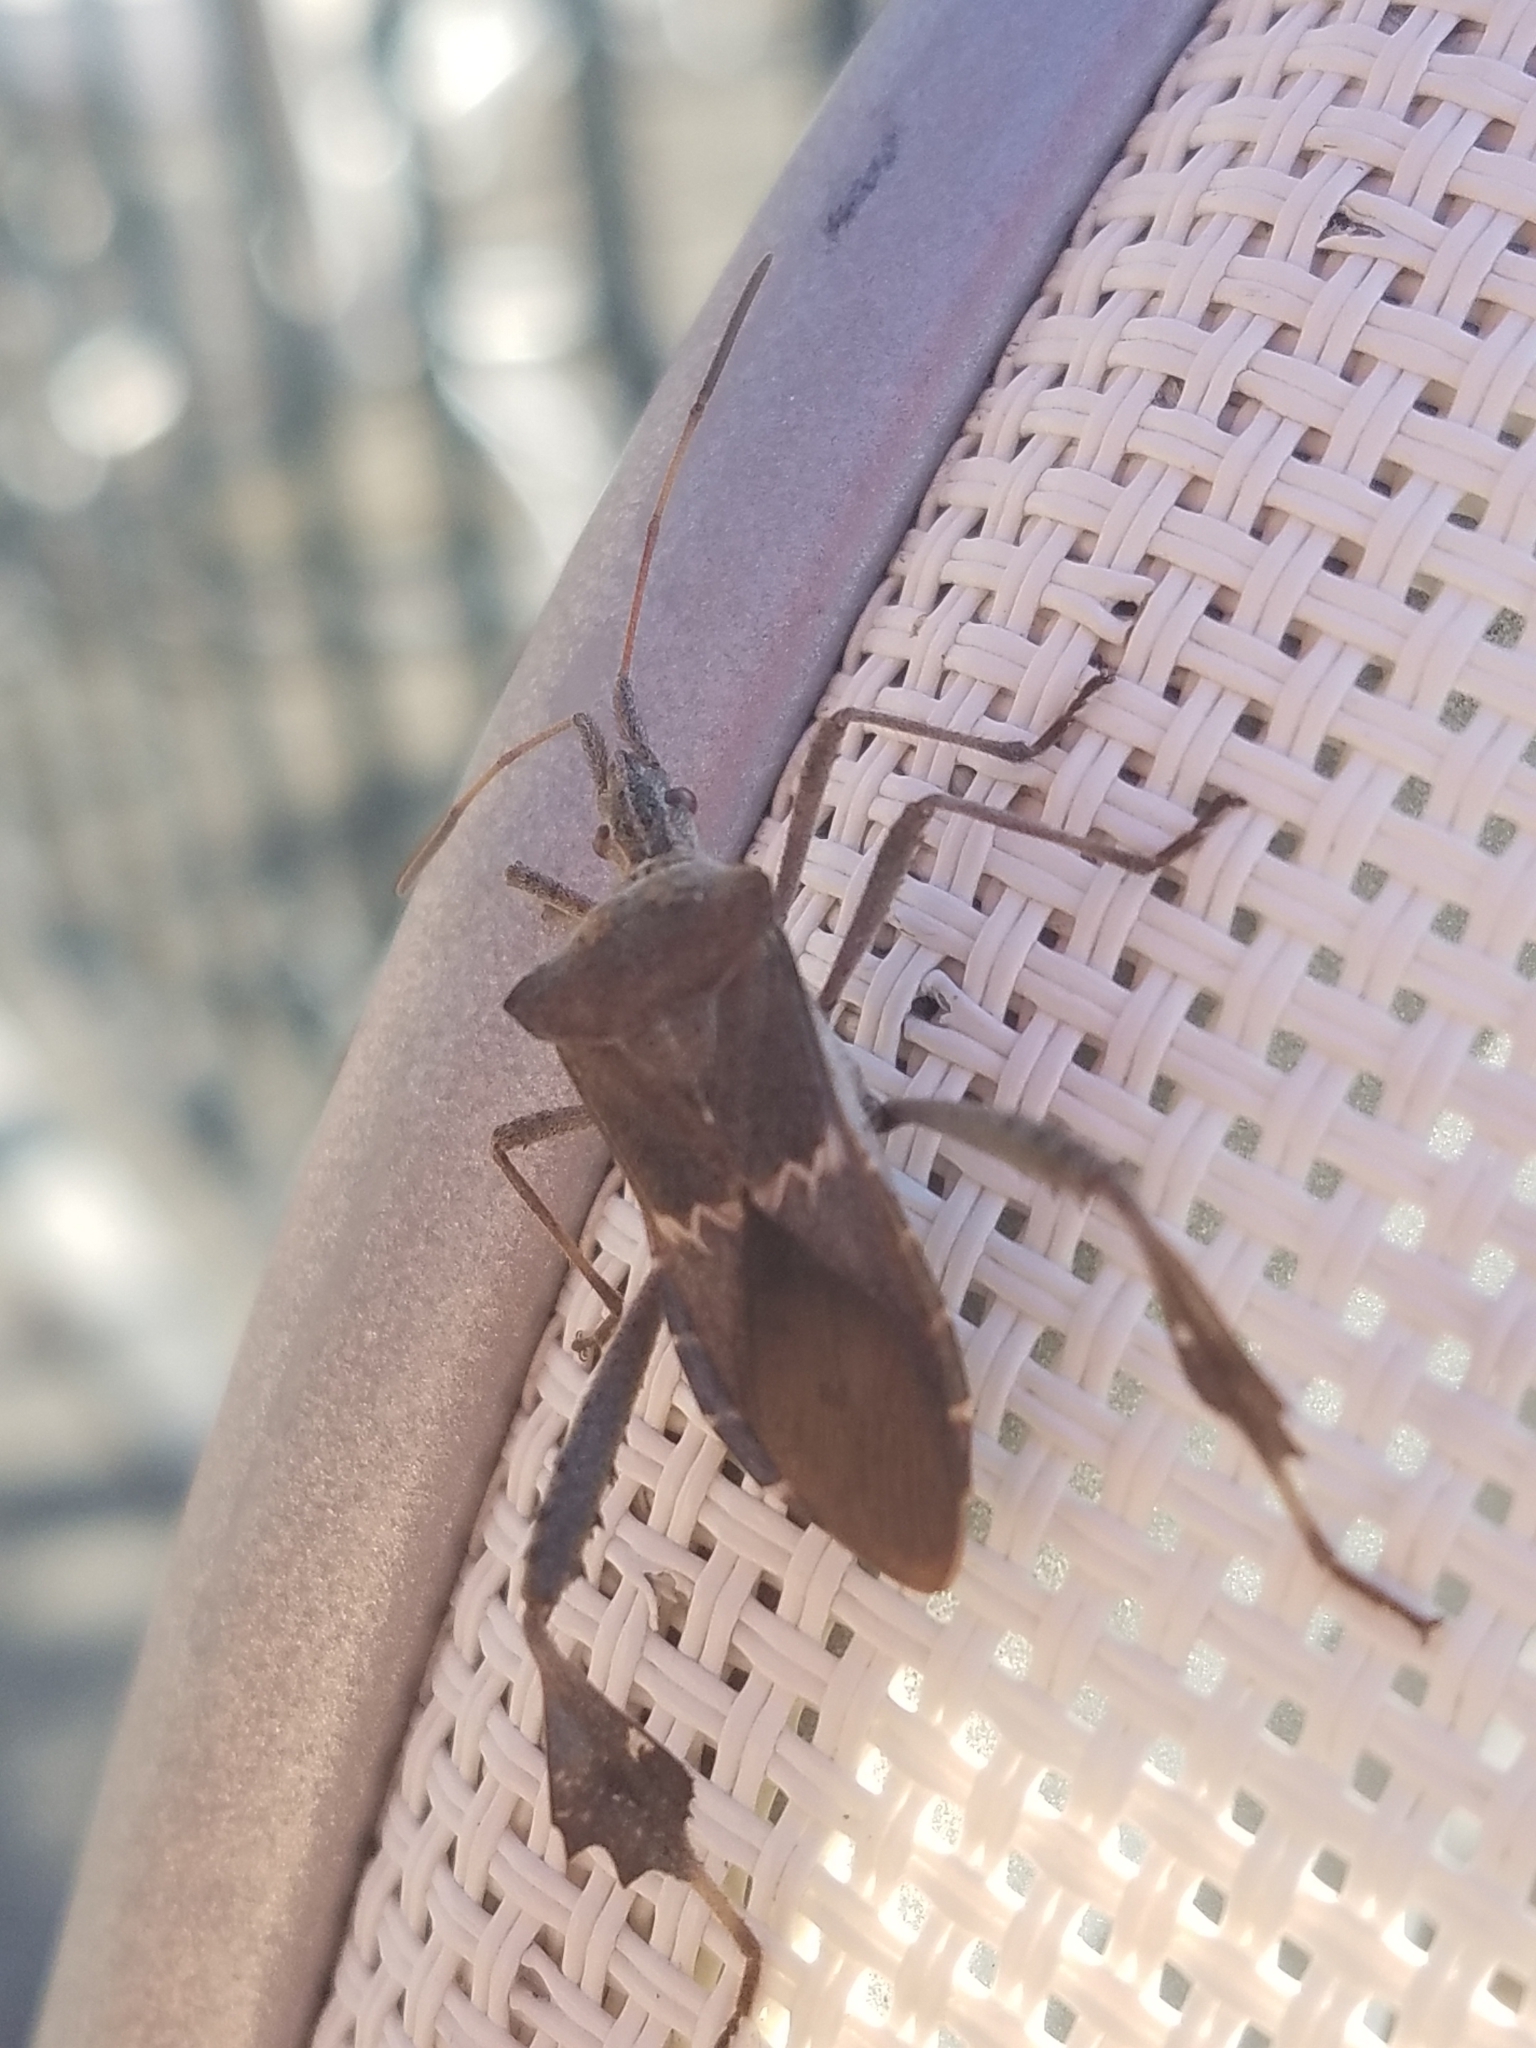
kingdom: Animalia
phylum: Arthropoda
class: Insecta
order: Hemiptera
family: Coreidae
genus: Leptoglossus
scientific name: Leptoglossus zonatus
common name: Large-legged bug
